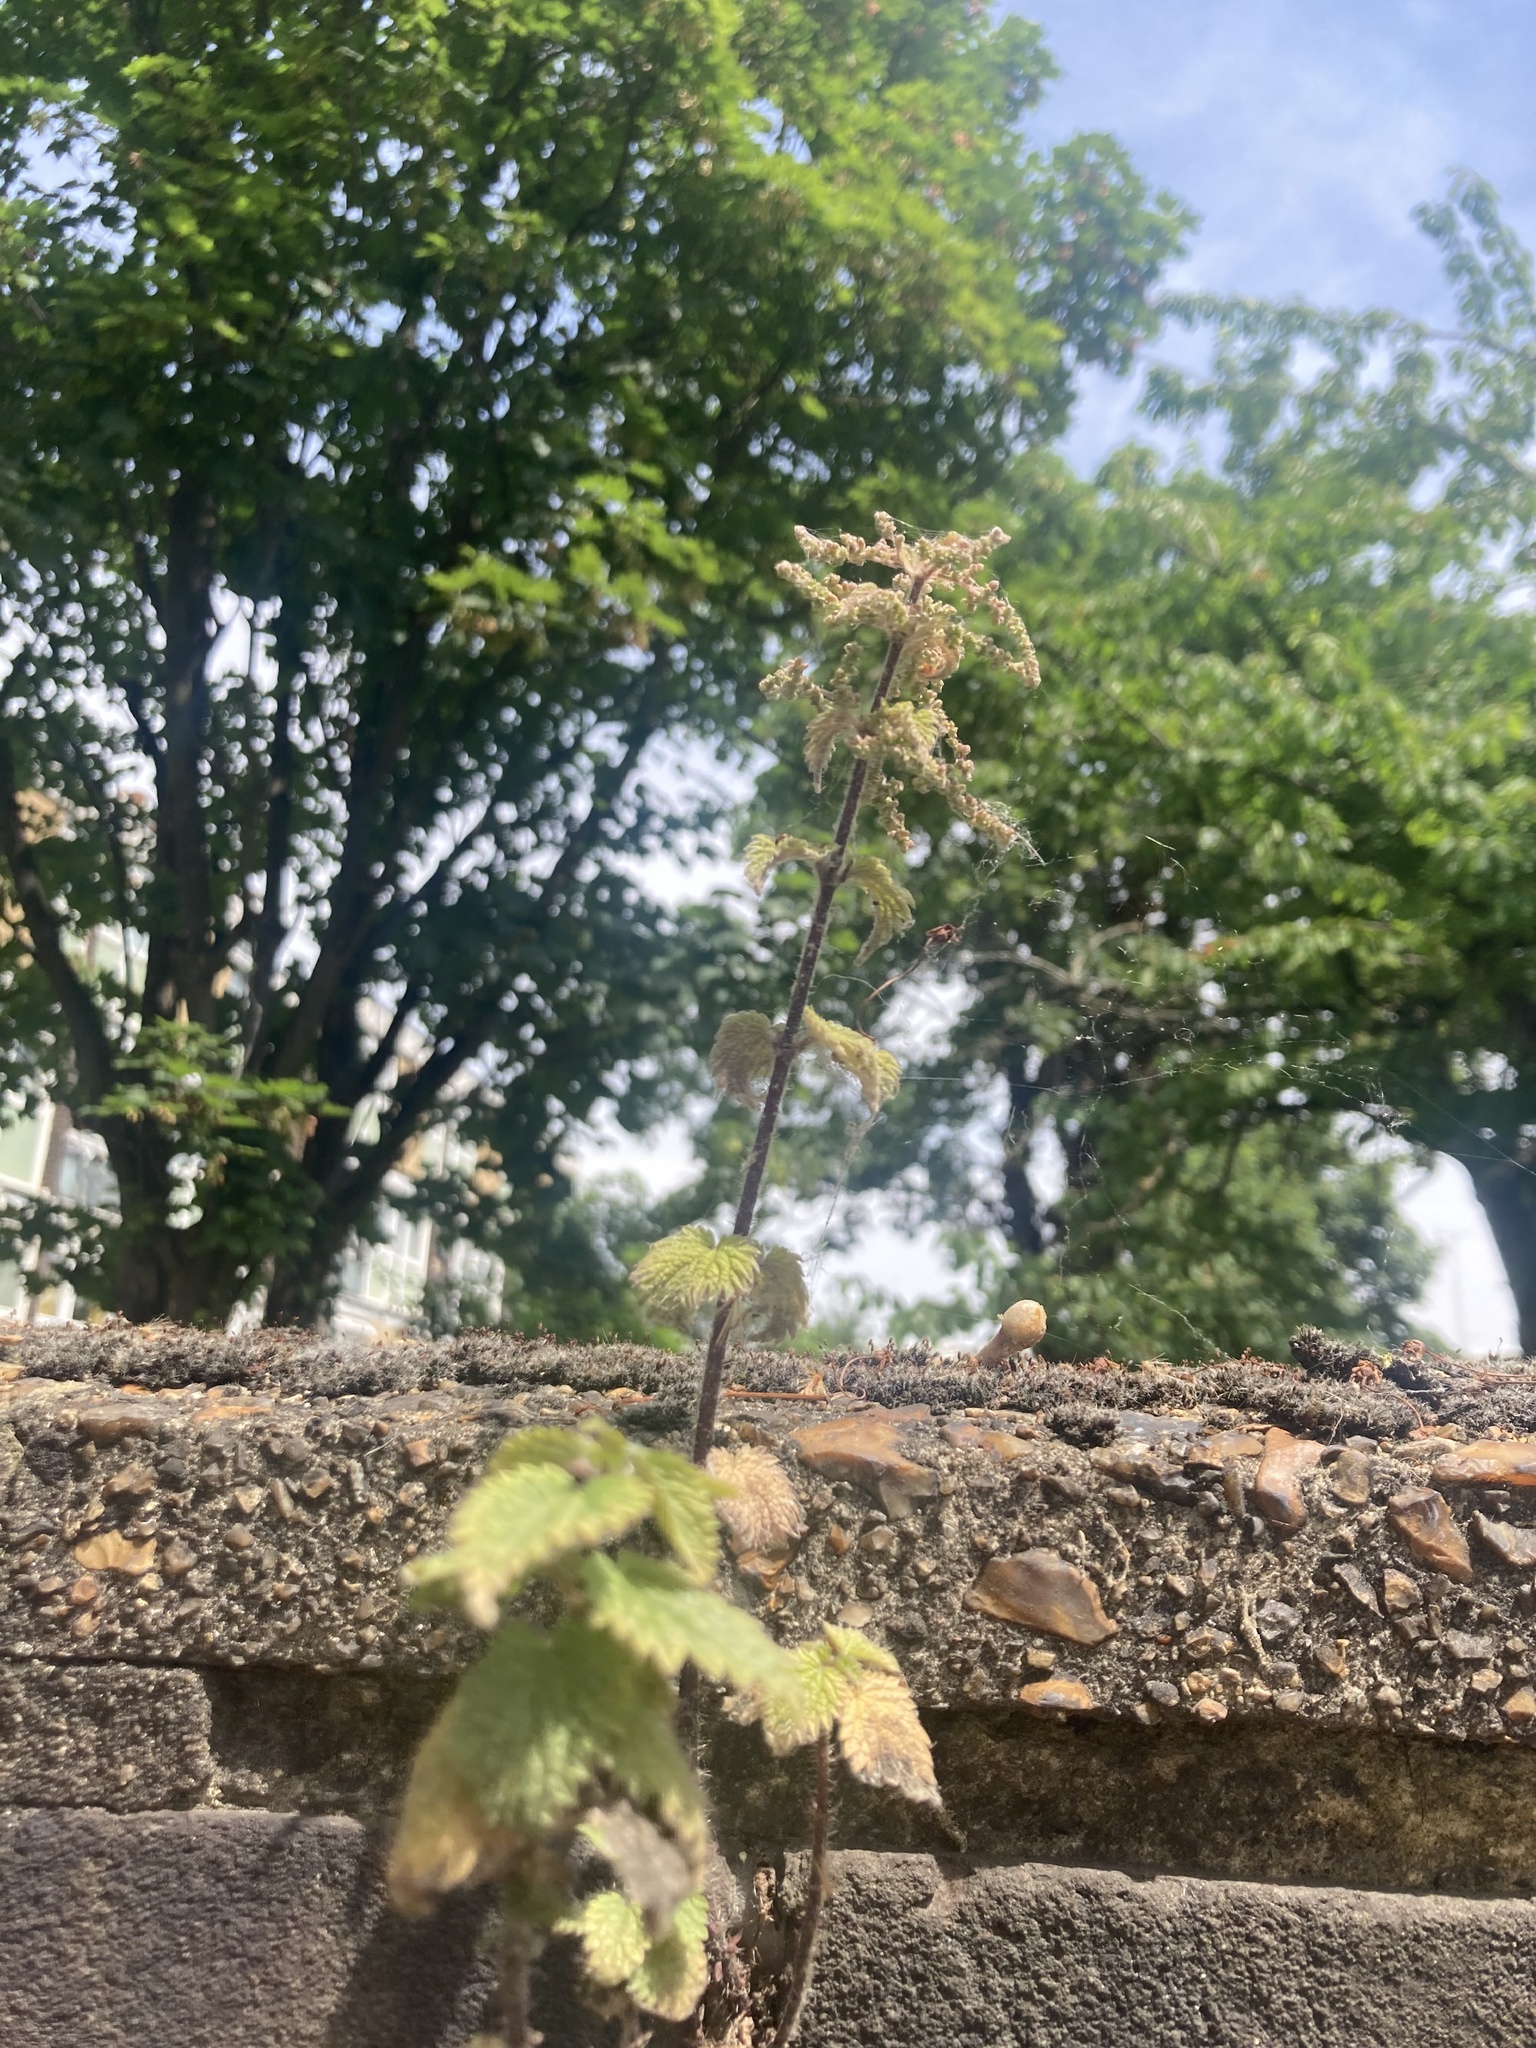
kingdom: Plantae
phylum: Tracheophyta
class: Magnoliopsida
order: Rosales
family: Urticaceae
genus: Urtica
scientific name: Urtica dioica
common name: Common nettle
